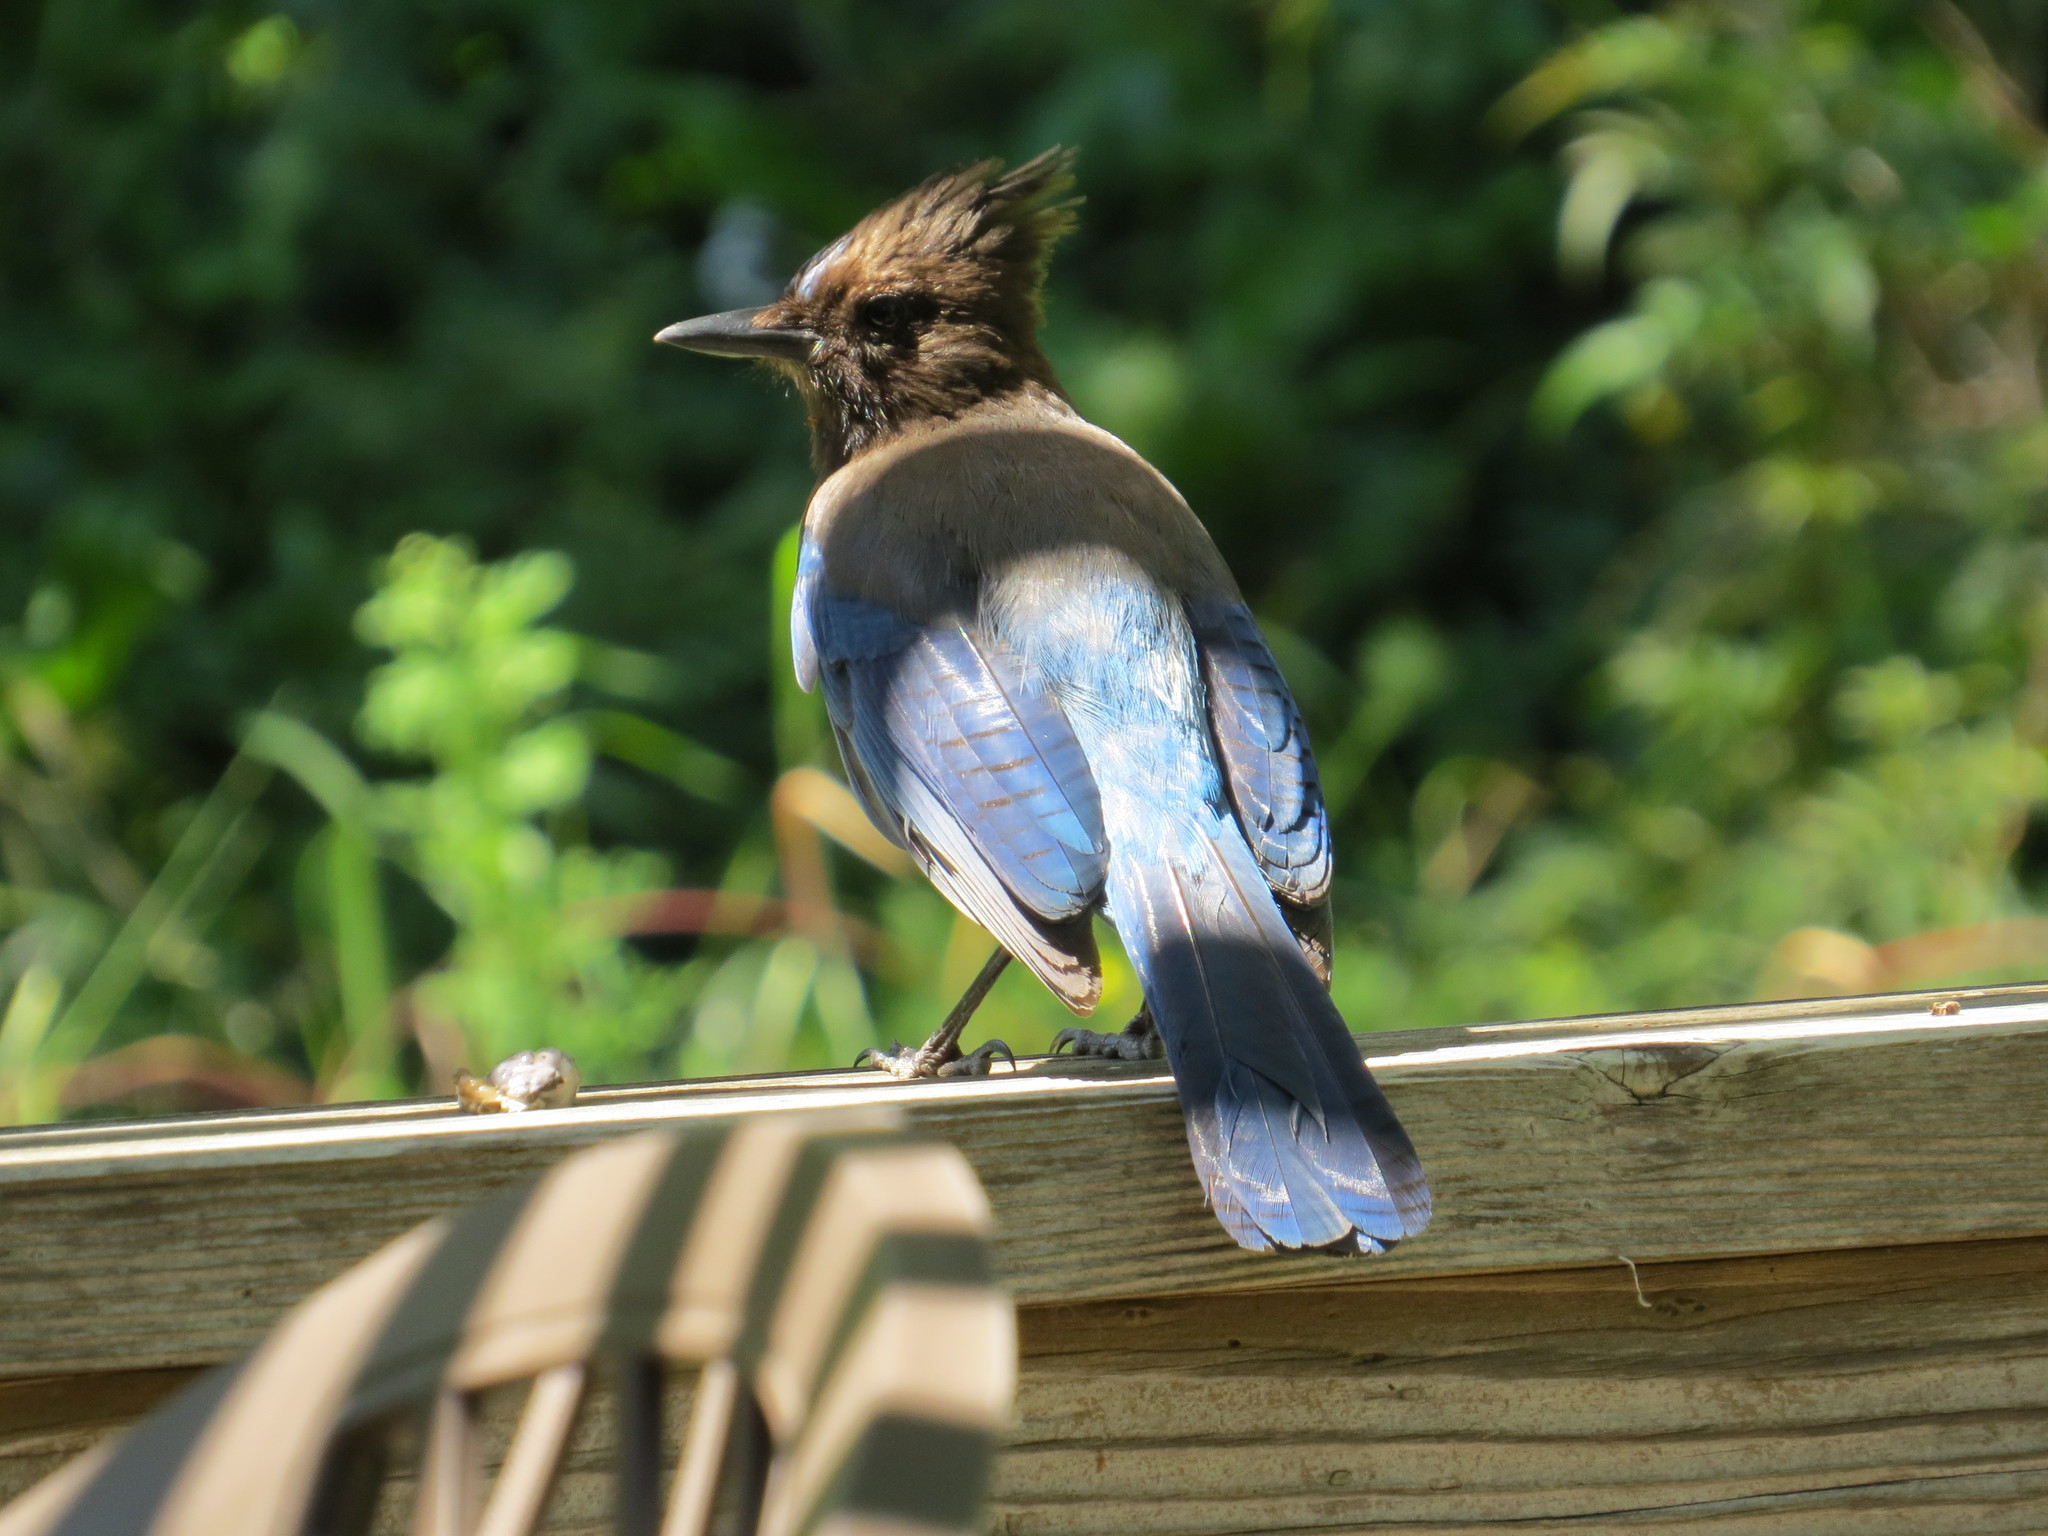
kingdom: Animalia
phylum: Chordata
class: Aves
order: Passeriformes
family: Corvidae
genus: Cyanocitta
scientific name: Cyanocitta stelleri
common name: Steller's jay
